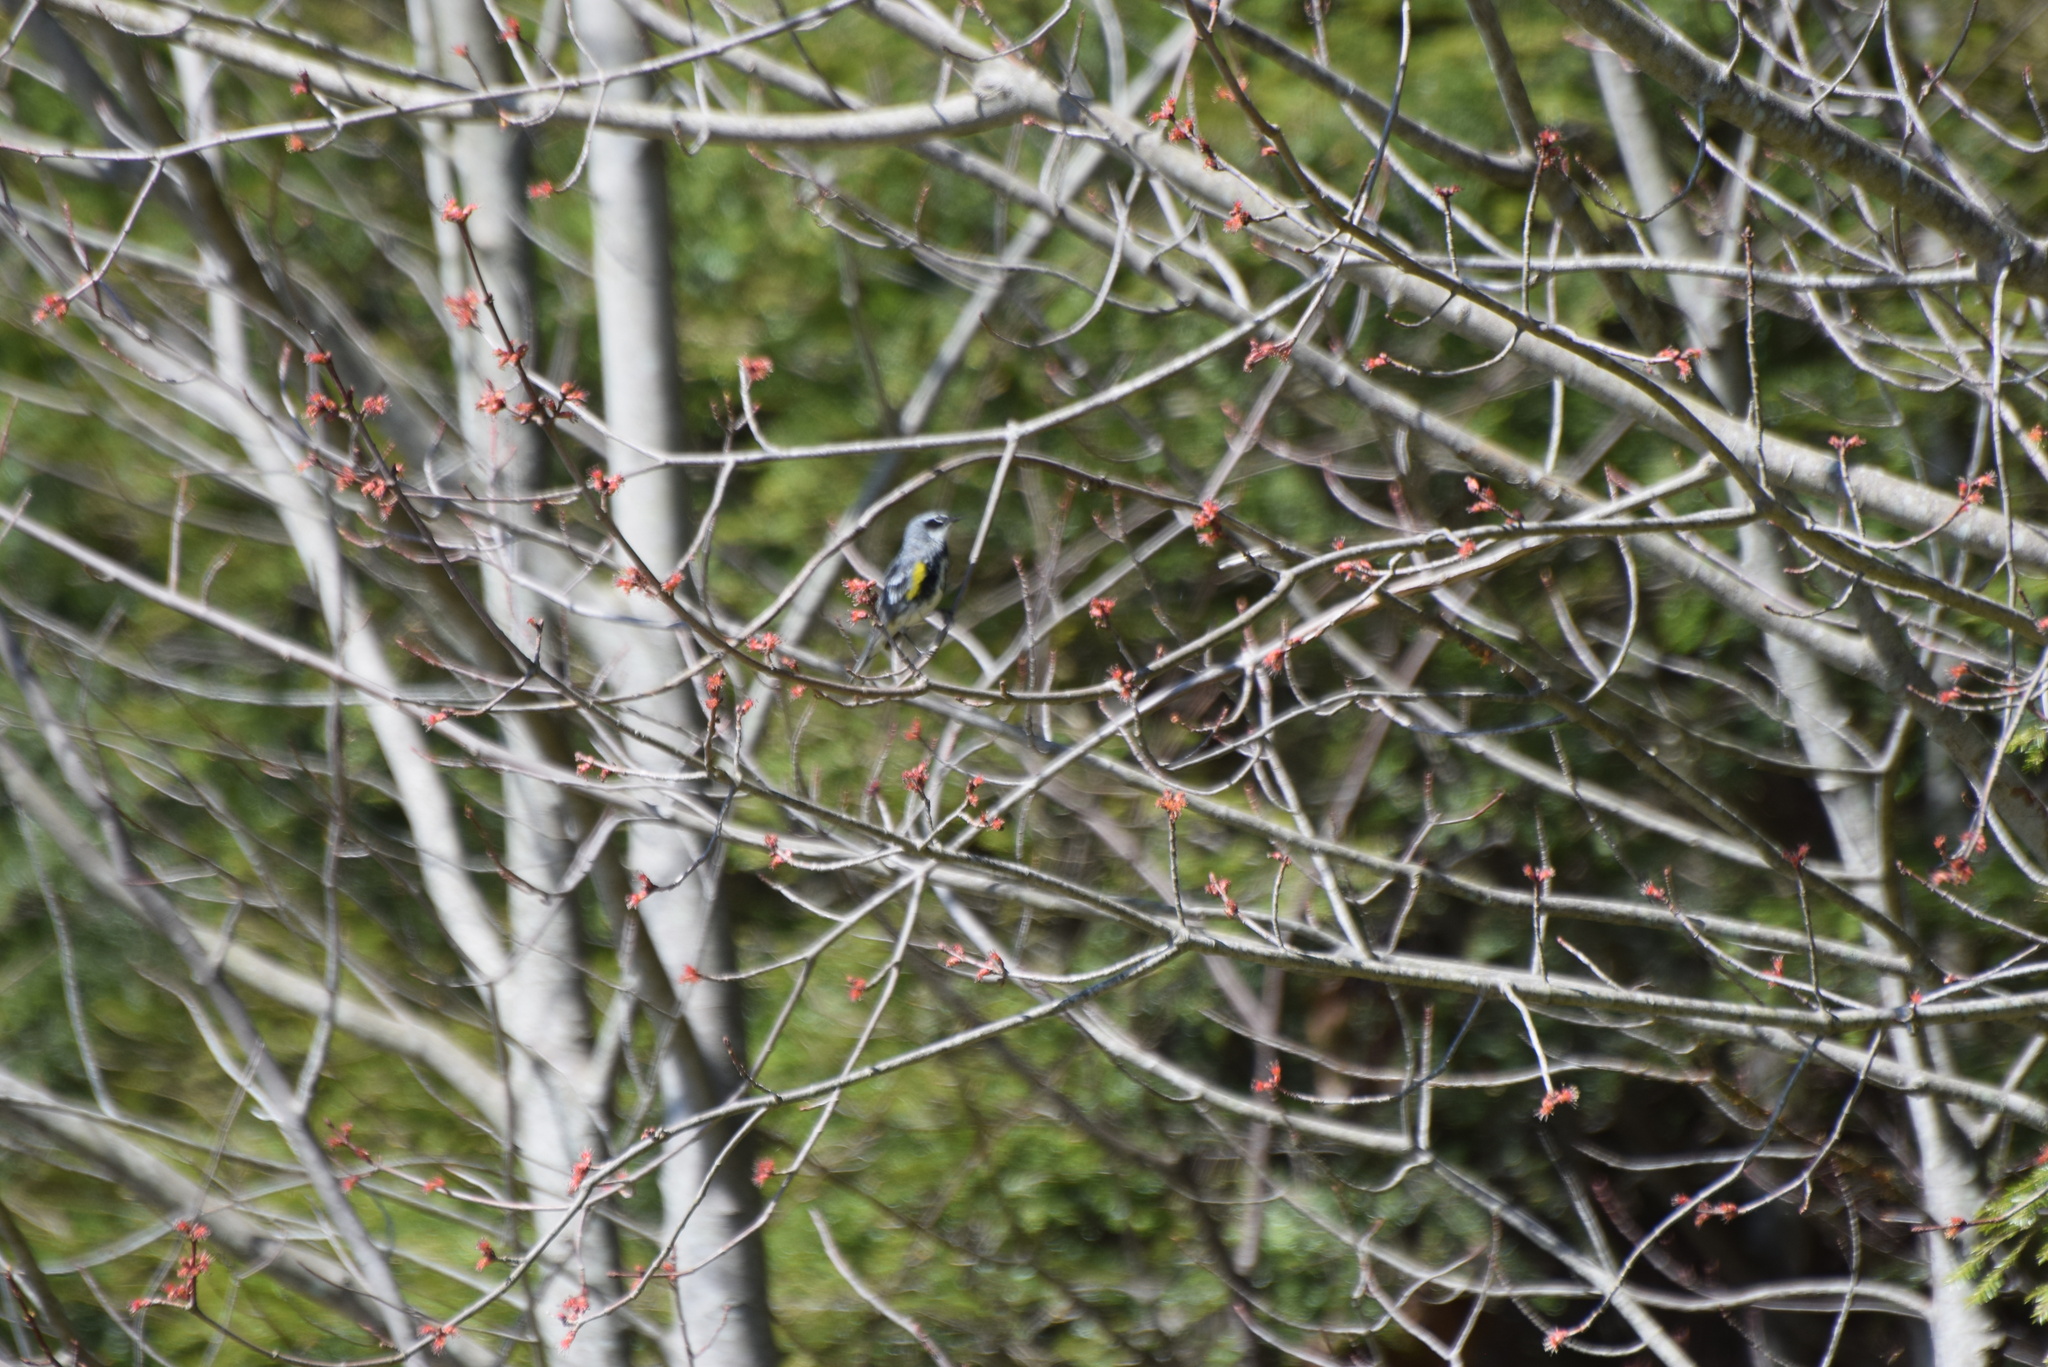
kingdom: Animalia
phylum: Chordata
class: Aves
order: Passeriformes
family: Parulidae
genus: Setophaga
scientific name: Setophaga coronata
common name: Myrtle warbler
